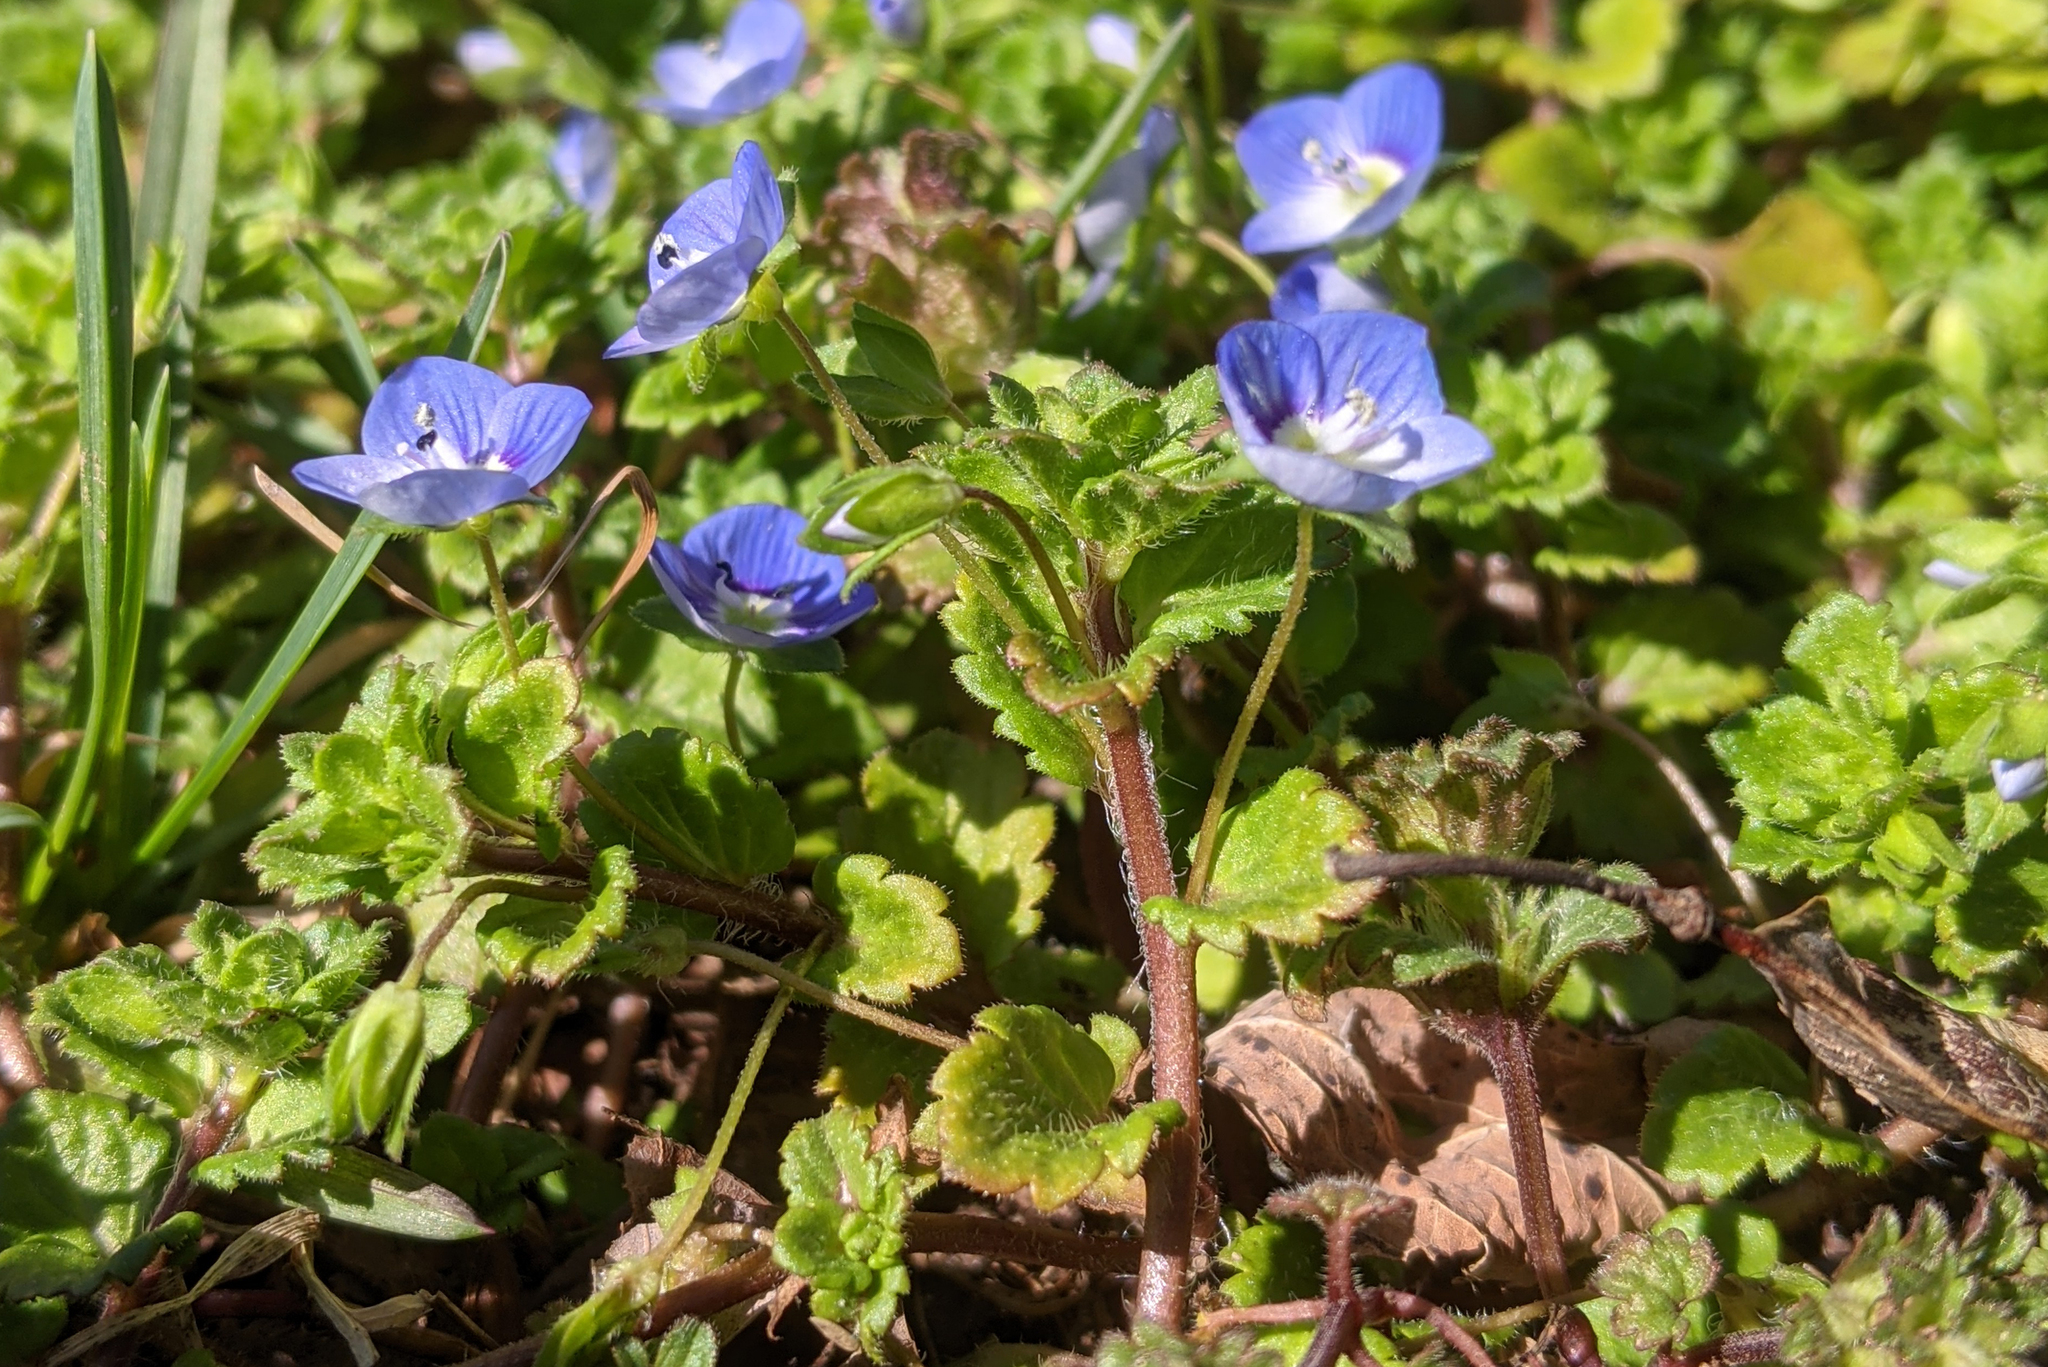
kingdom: Plantae
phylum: Tracheophyta
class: Magnoliopsida
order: Lamiales
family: Plantaginaceae
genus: Veronica
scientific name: Veronica persica
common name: Common field-speedwell
